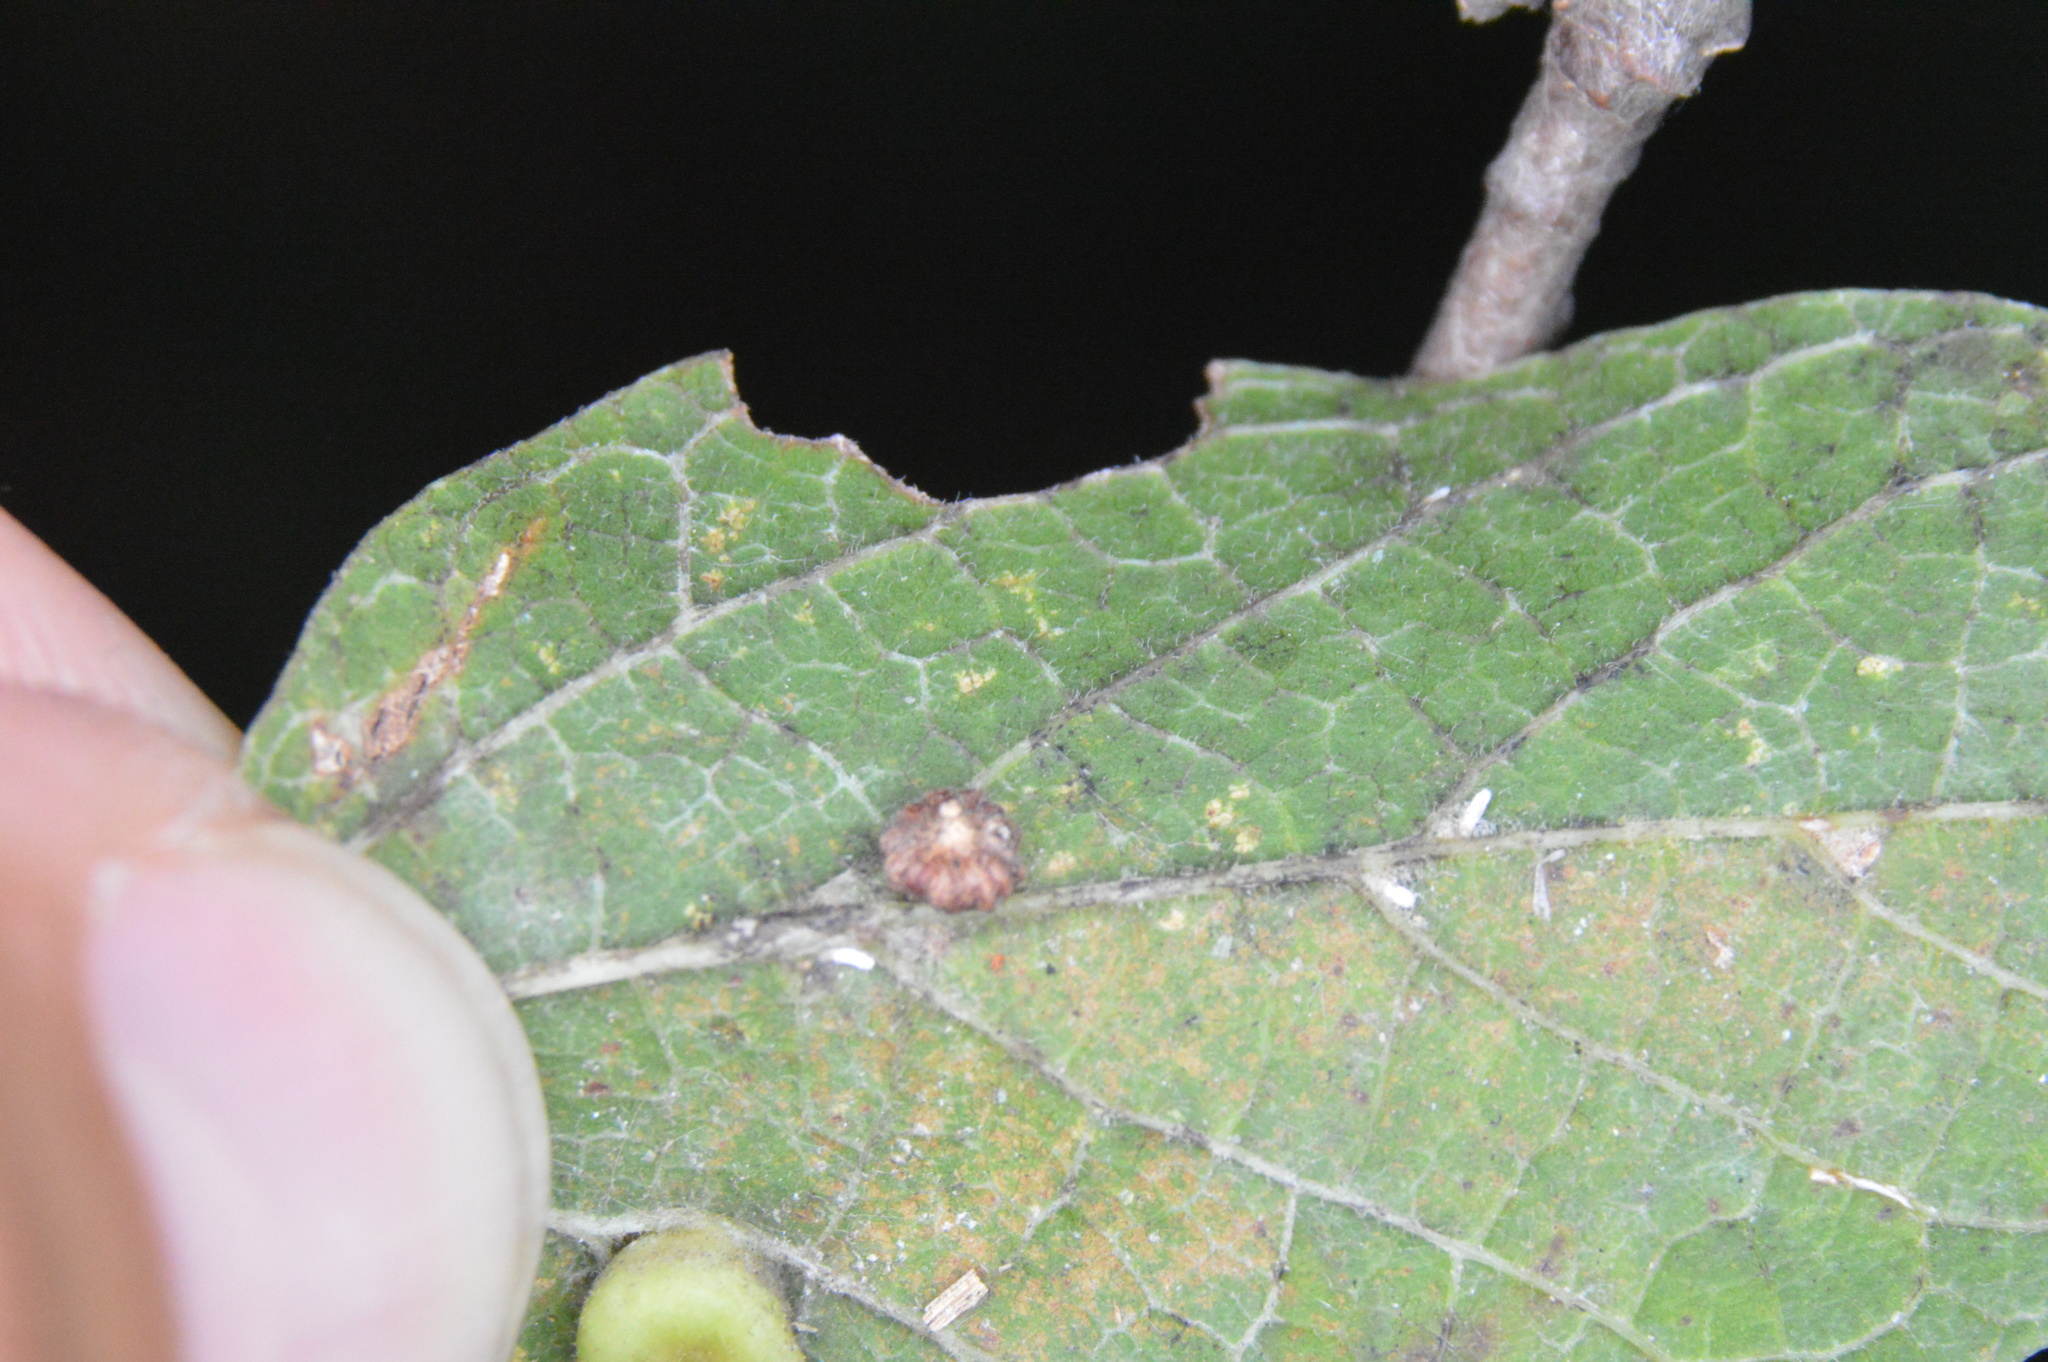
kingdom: Animalia
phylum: Arthropoda
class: Insecta
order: Diptera
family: Cecidomyiidae
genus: Celticecis
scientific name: Celticecis capsularis
